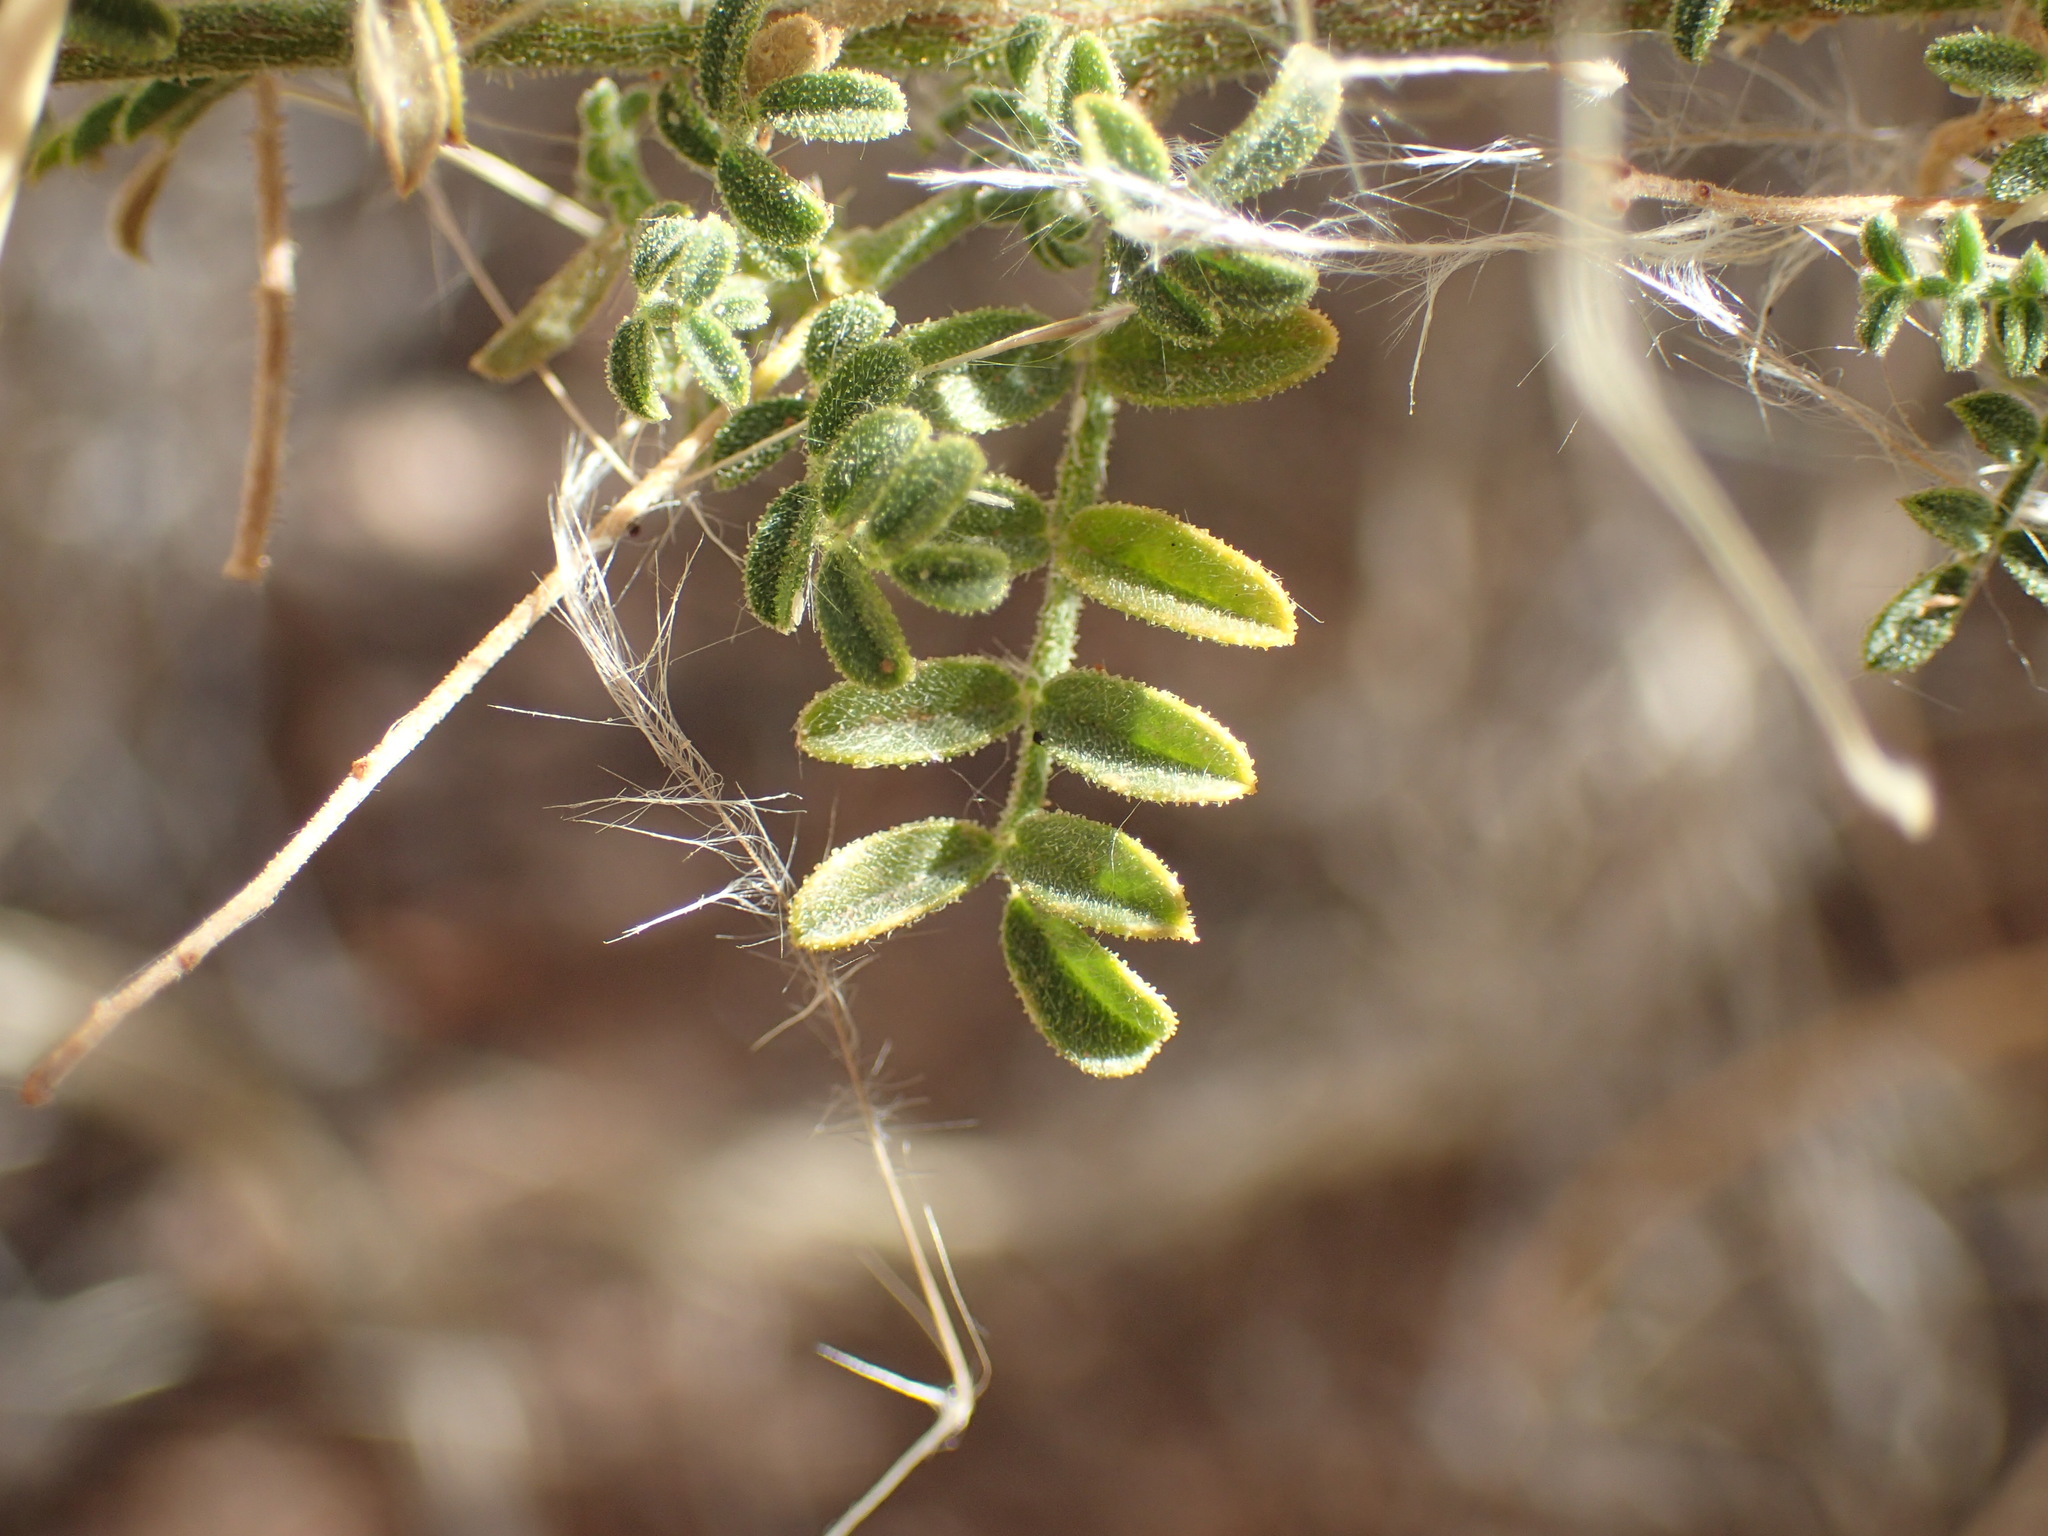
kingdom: Plantae
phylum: Tracheophyta
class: Magnoliopsida
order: Fabales
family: Fabaceae
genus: Indigofera
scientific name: Indigofera heterotricha
